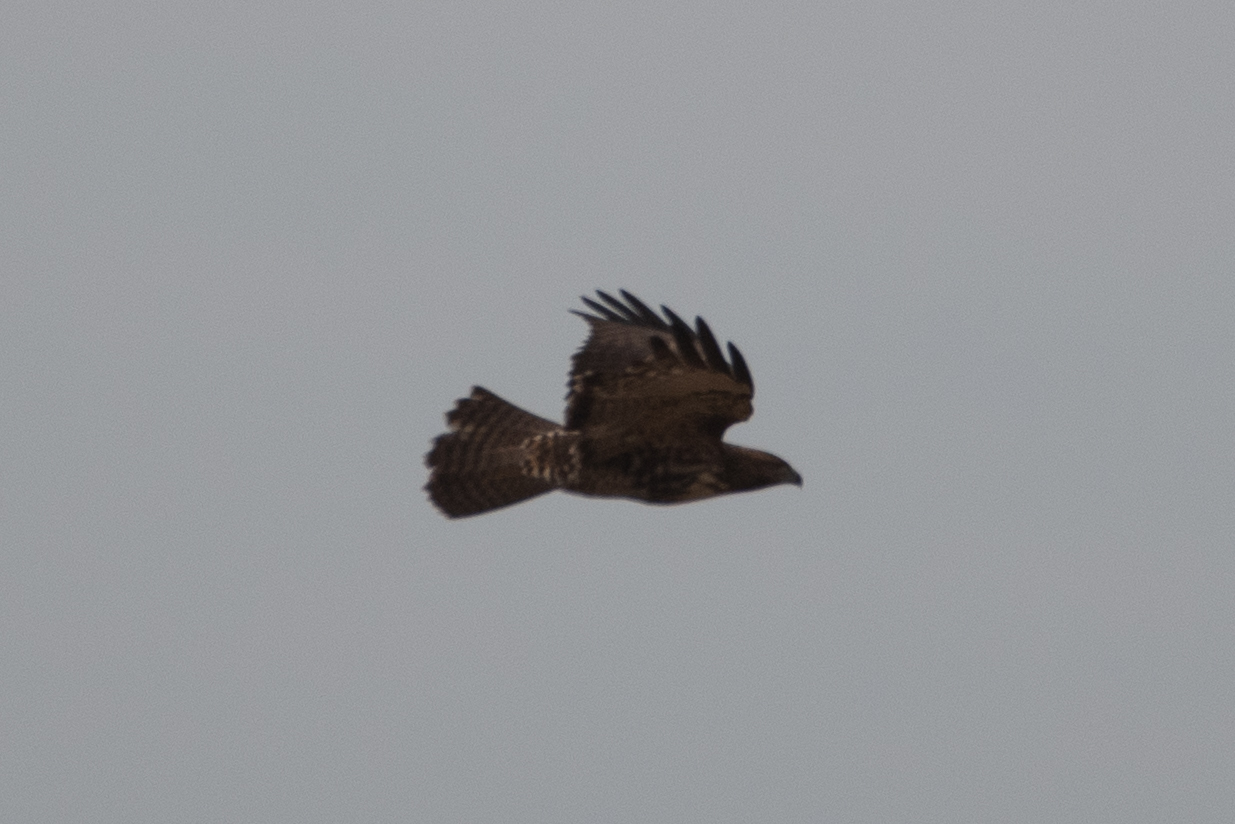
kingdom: Animalia
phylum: Chordata
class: Aves
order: Accipitriformes
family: Accipitridae
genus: Buteo
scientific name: Buteo jamaicensis
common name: Red-tailed hawk
